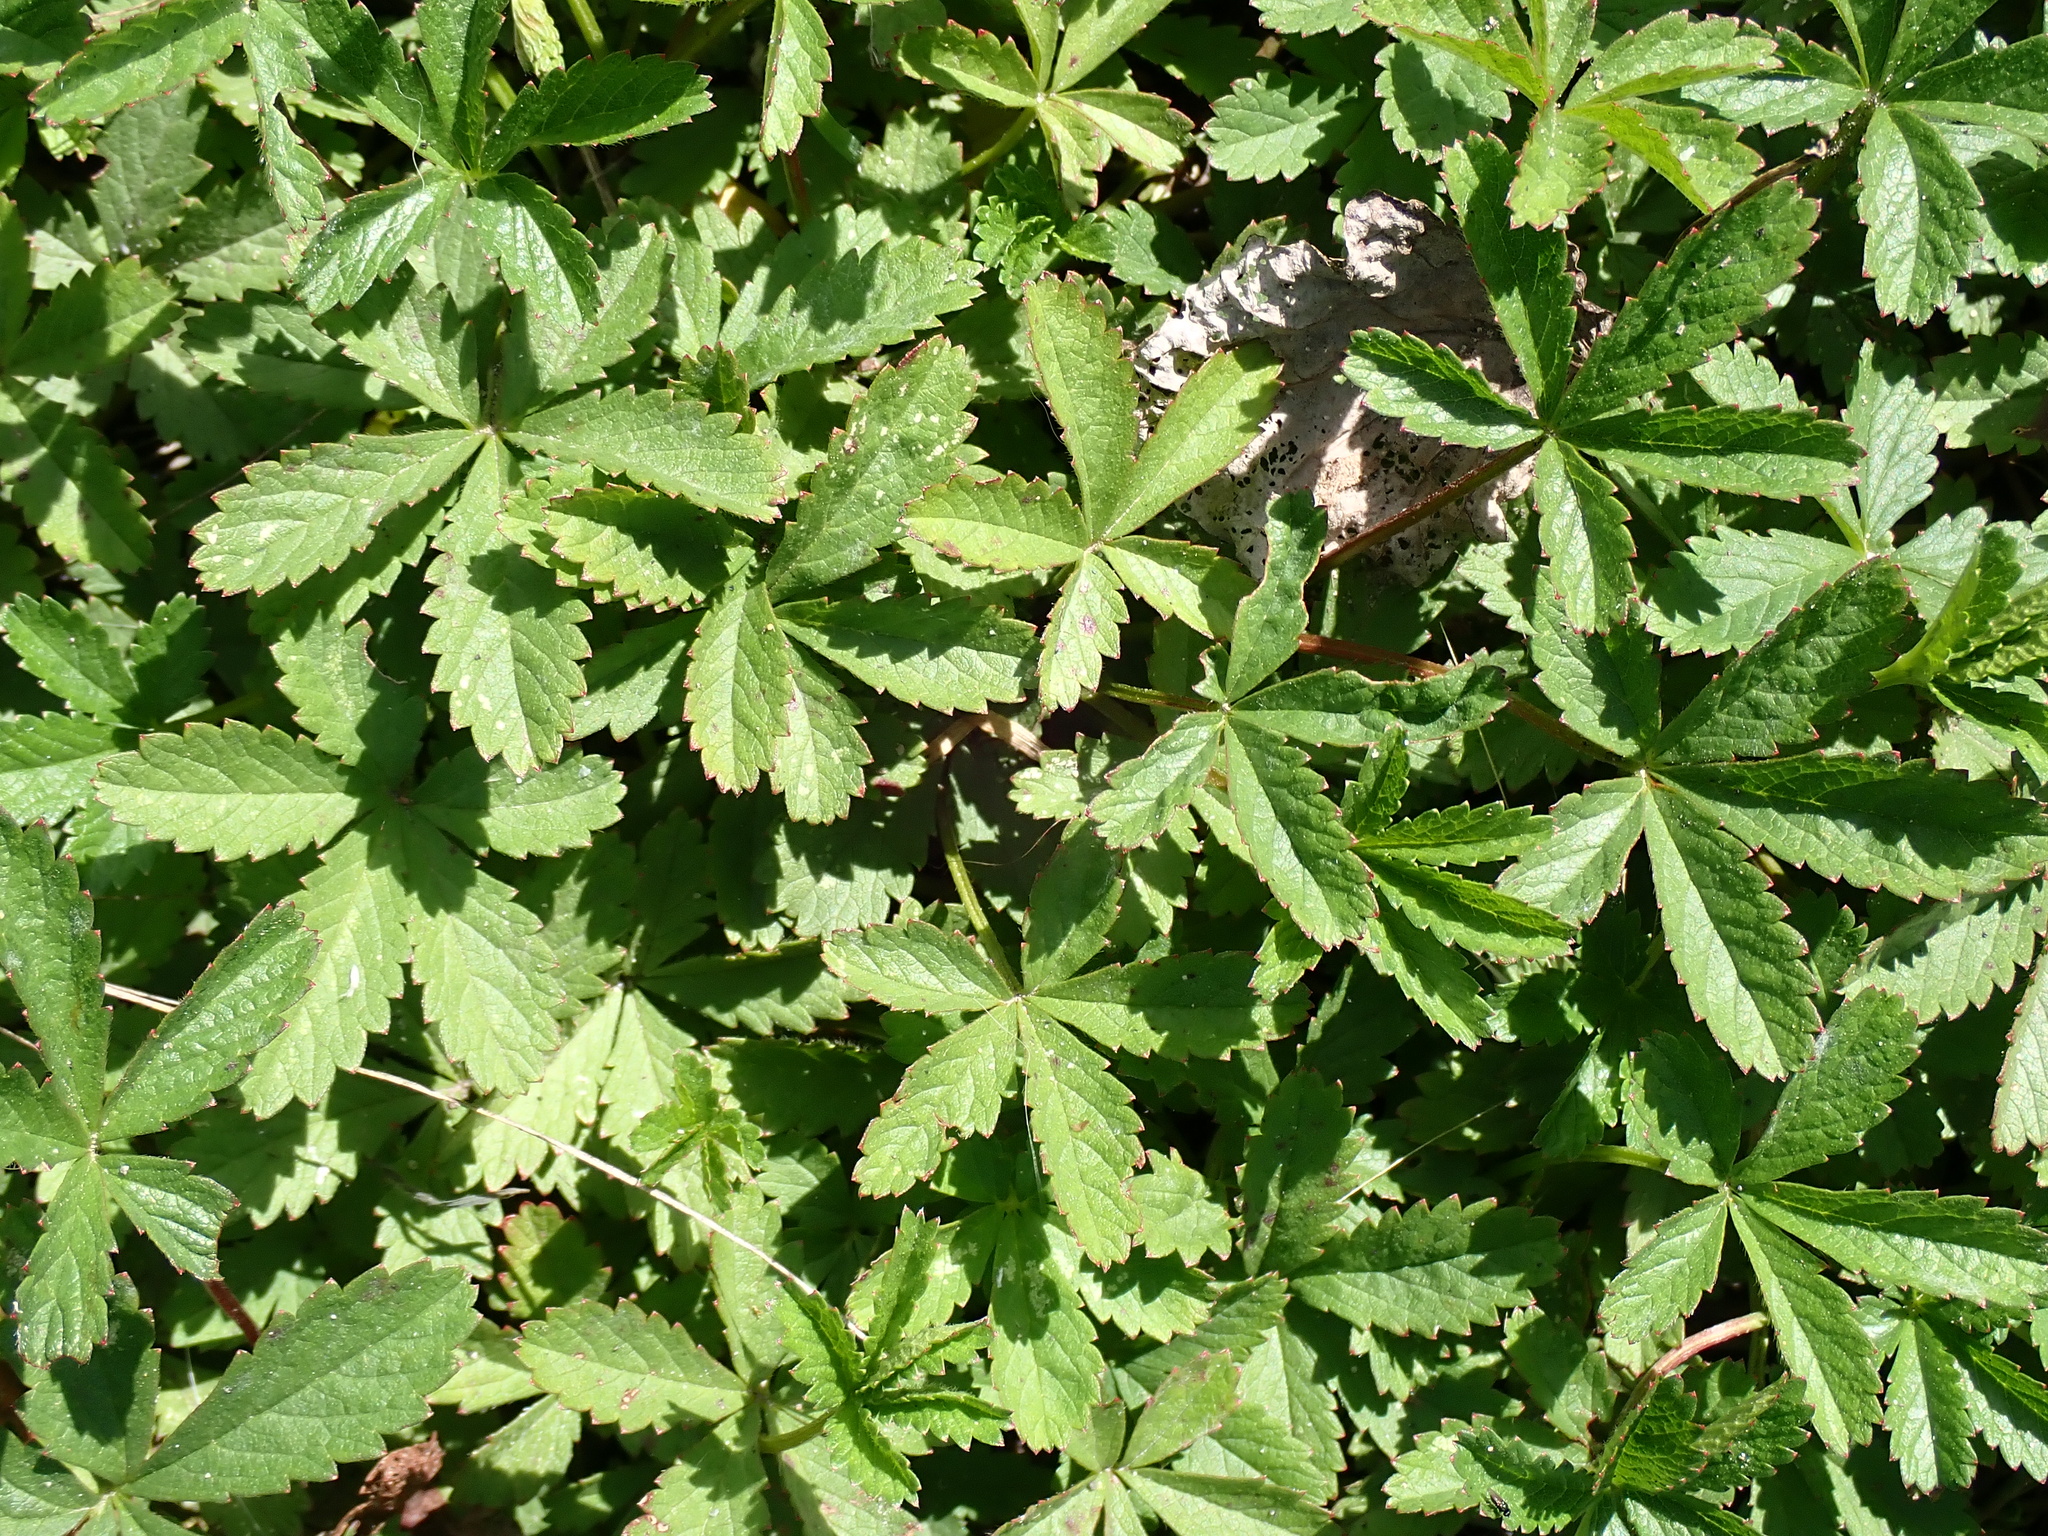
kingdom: Plantae
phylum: Tracheophyta
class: Magnoliopsida
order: Rosales
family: Rosaceae
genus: Potentilla
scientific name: Potentilla reptans
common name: Creeping cinquefoil
